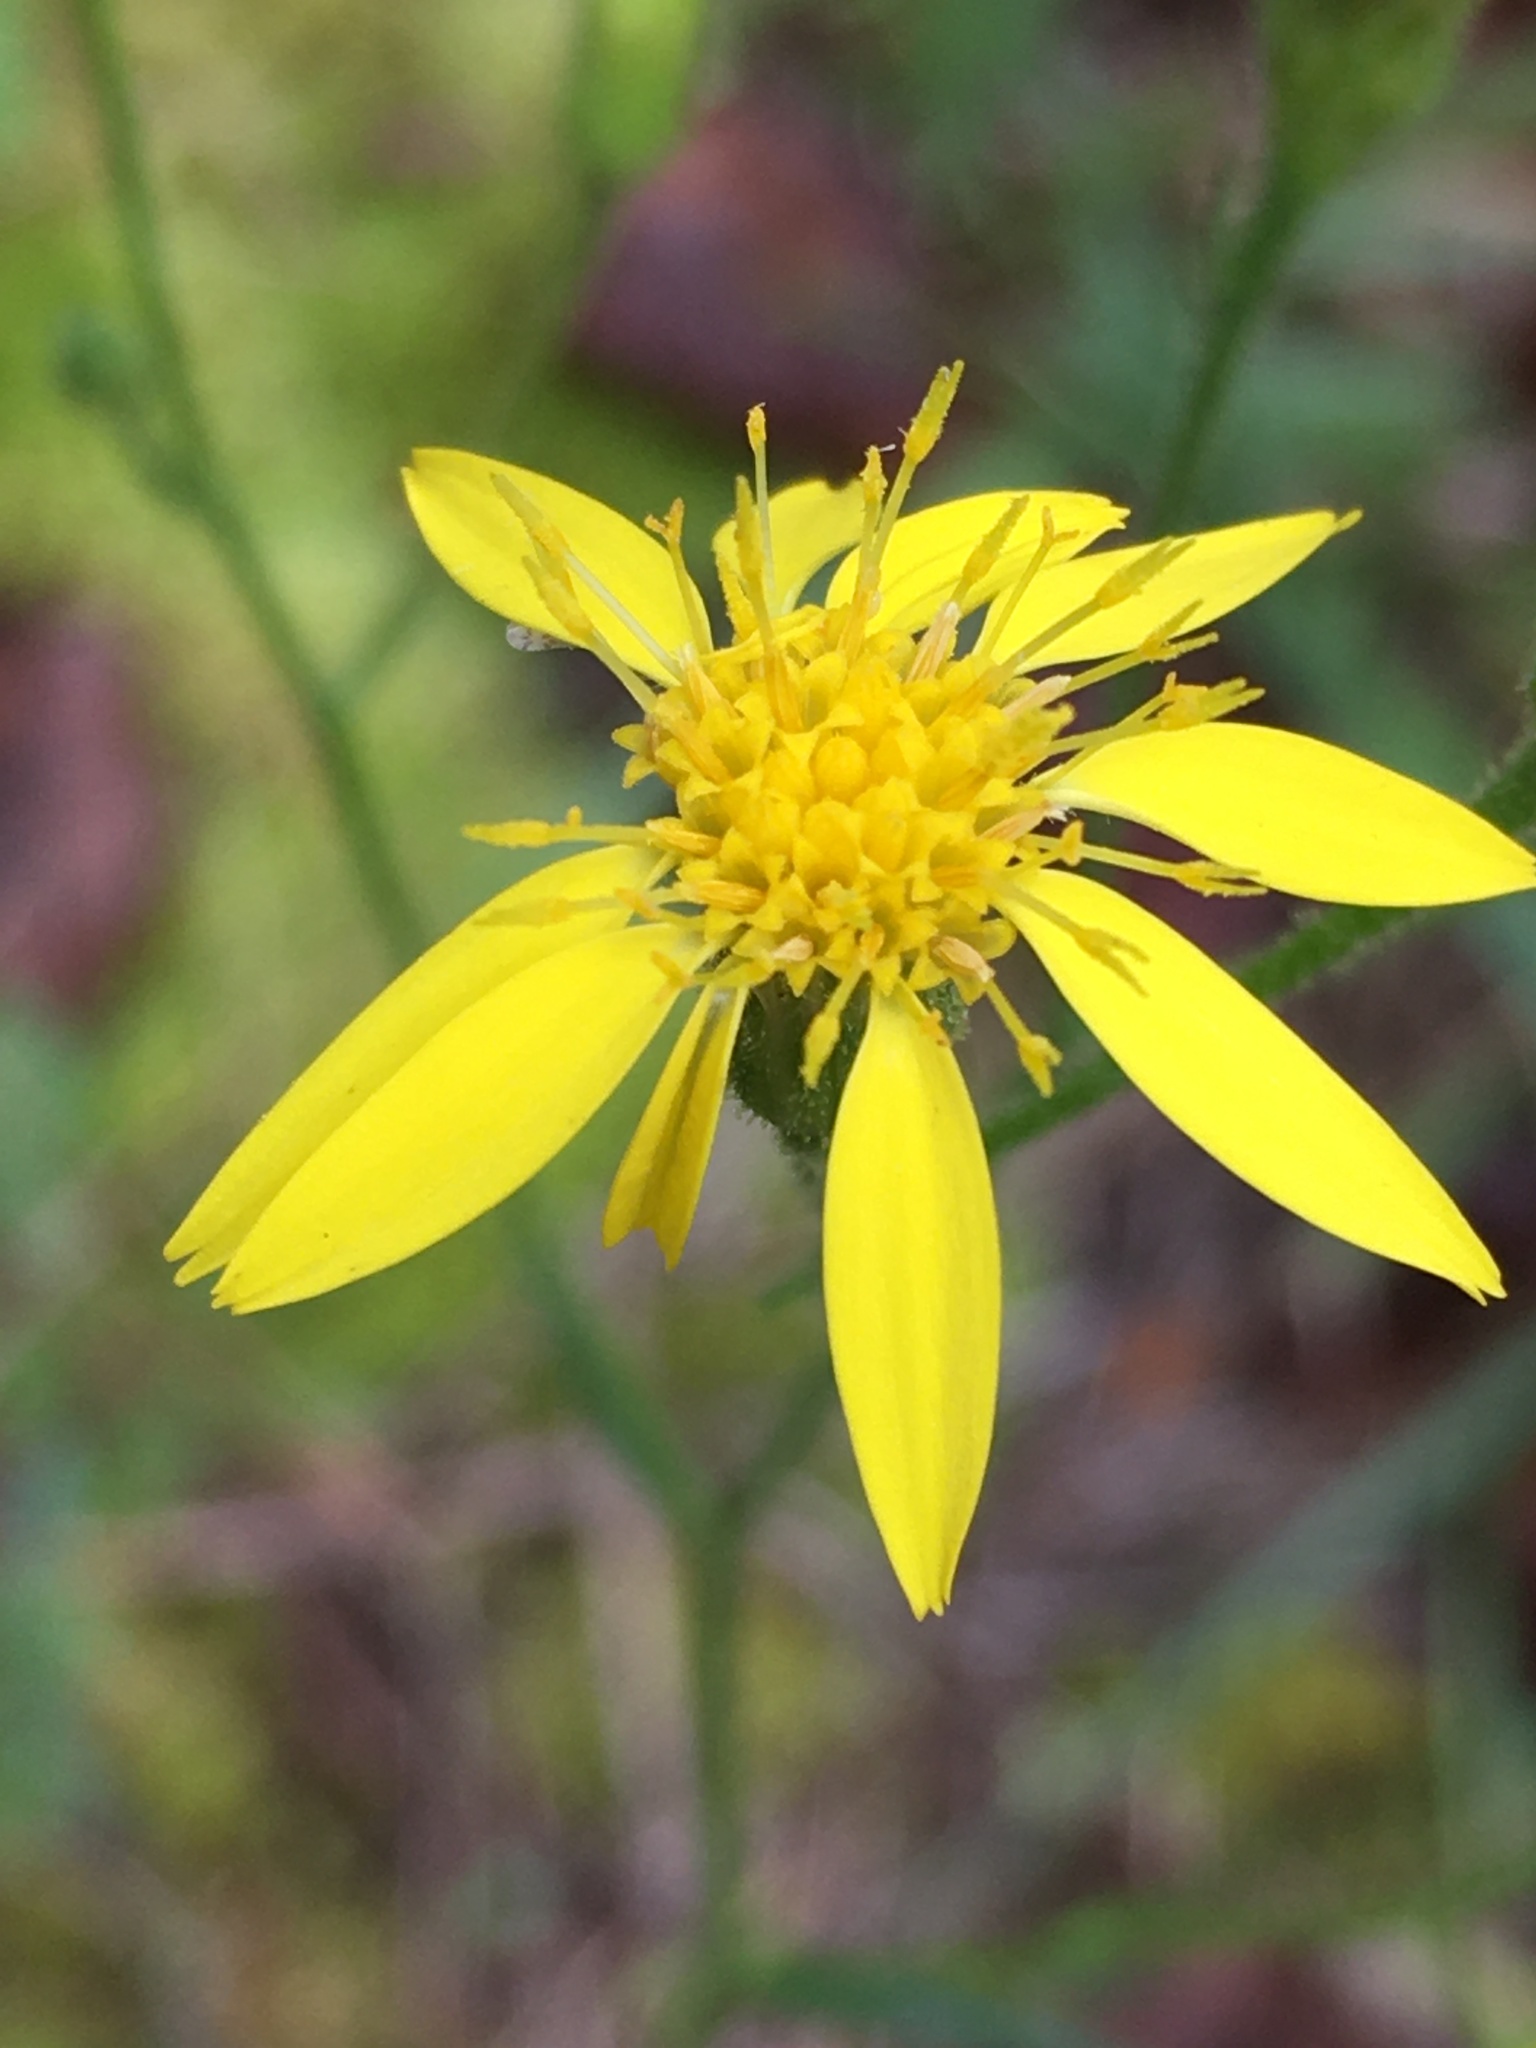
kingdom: Plantae
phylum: Tracheophyta
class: Magnoliopsida
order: Asterales
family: Asteraceae
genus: Pityopsis
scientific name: Pityopsis aspera
